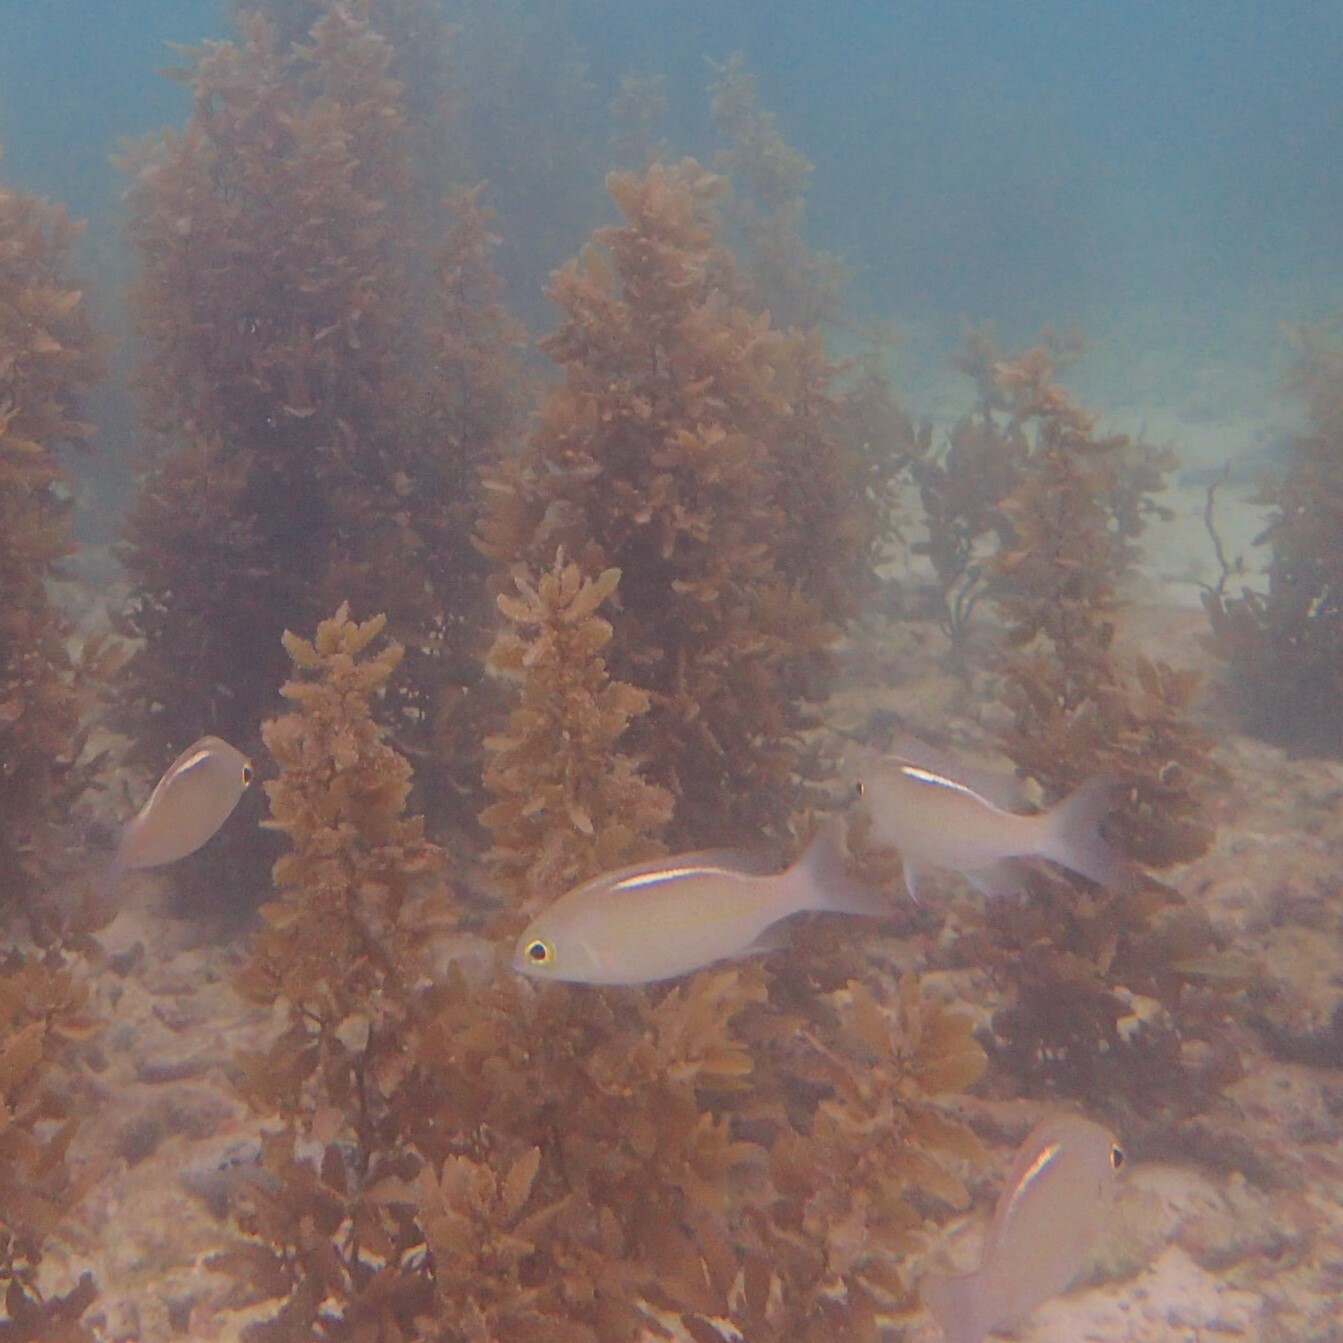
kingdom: Animalia
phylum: Chordata
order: Perciformes
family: Nemipteridae
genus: Scolopsis
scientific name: Scolopsis ciliata
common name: Ciliate spinecheek
